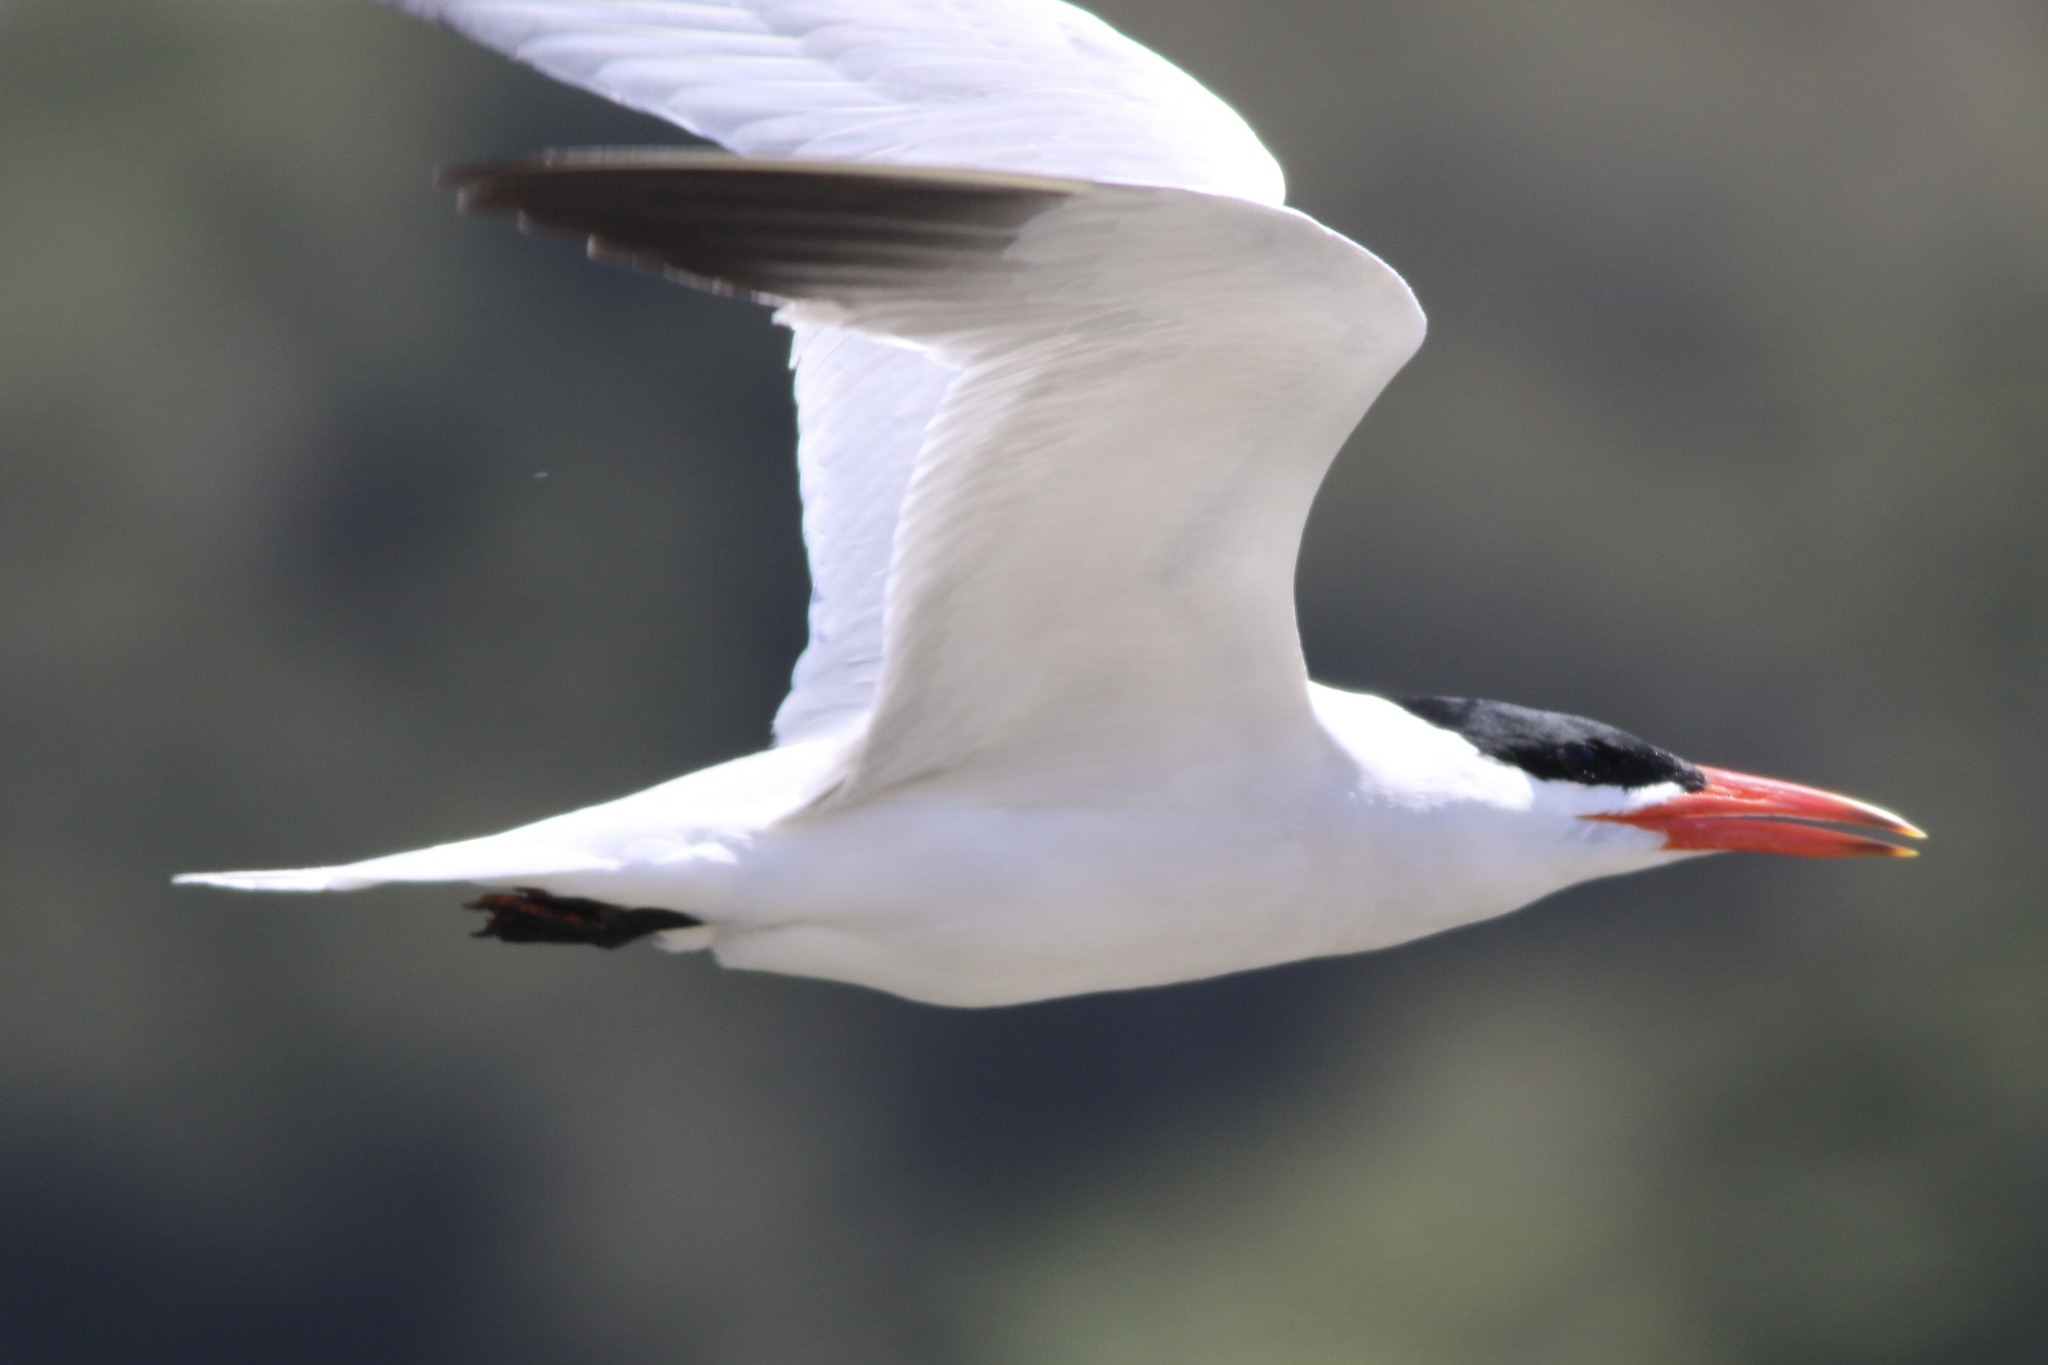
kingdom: Animalia
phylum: Chordata
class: Aves
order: Charadriiformes
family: Laridae
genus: Hydroprogne
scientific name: Hydroprogne caspia
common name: Caspian tern
